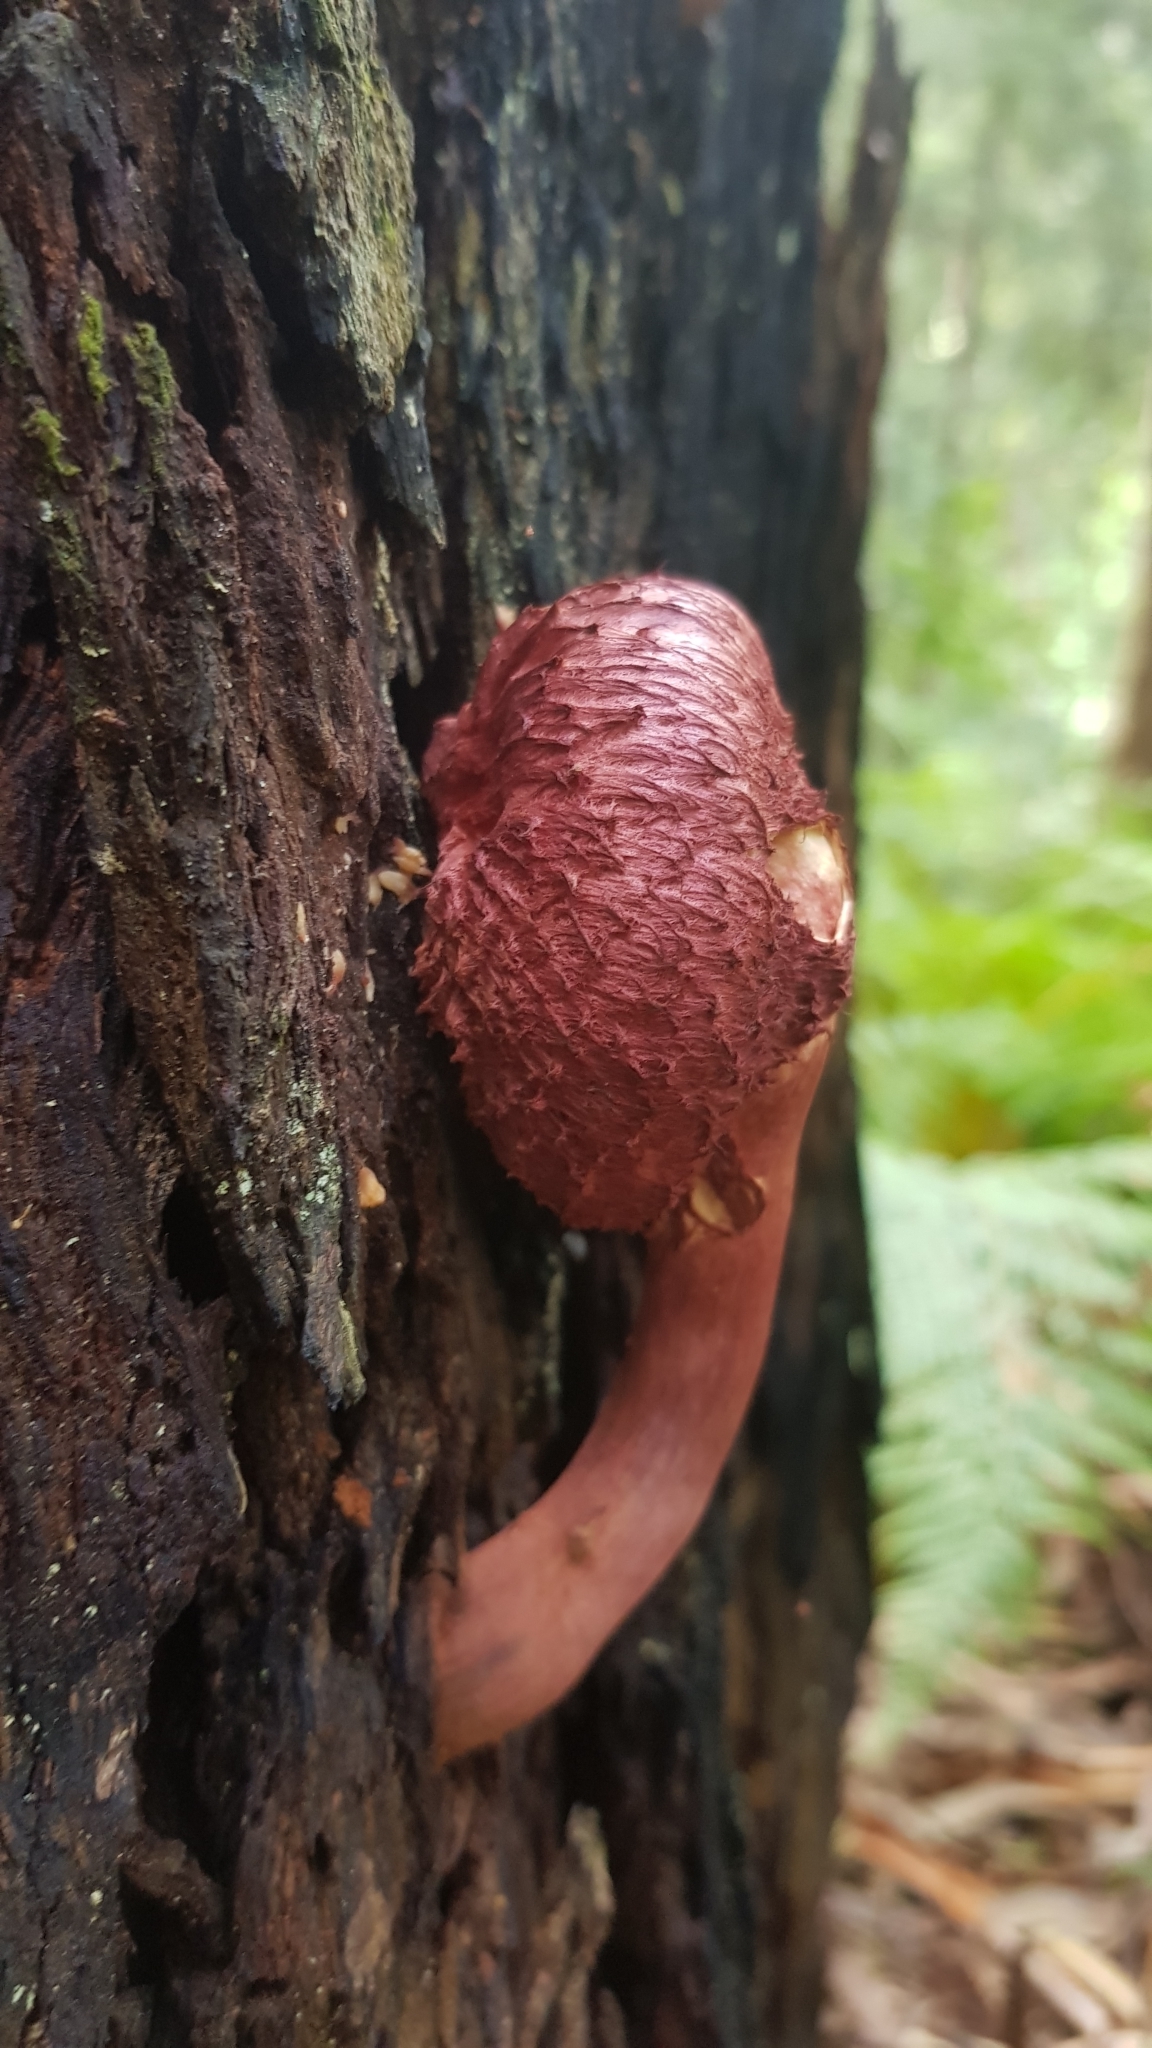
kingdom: Fungi
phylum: Basidiomycota
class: Agaricomycetes
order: Boletales
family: Boletaceae
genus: Boletellus
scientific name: Boletellus emodensis
